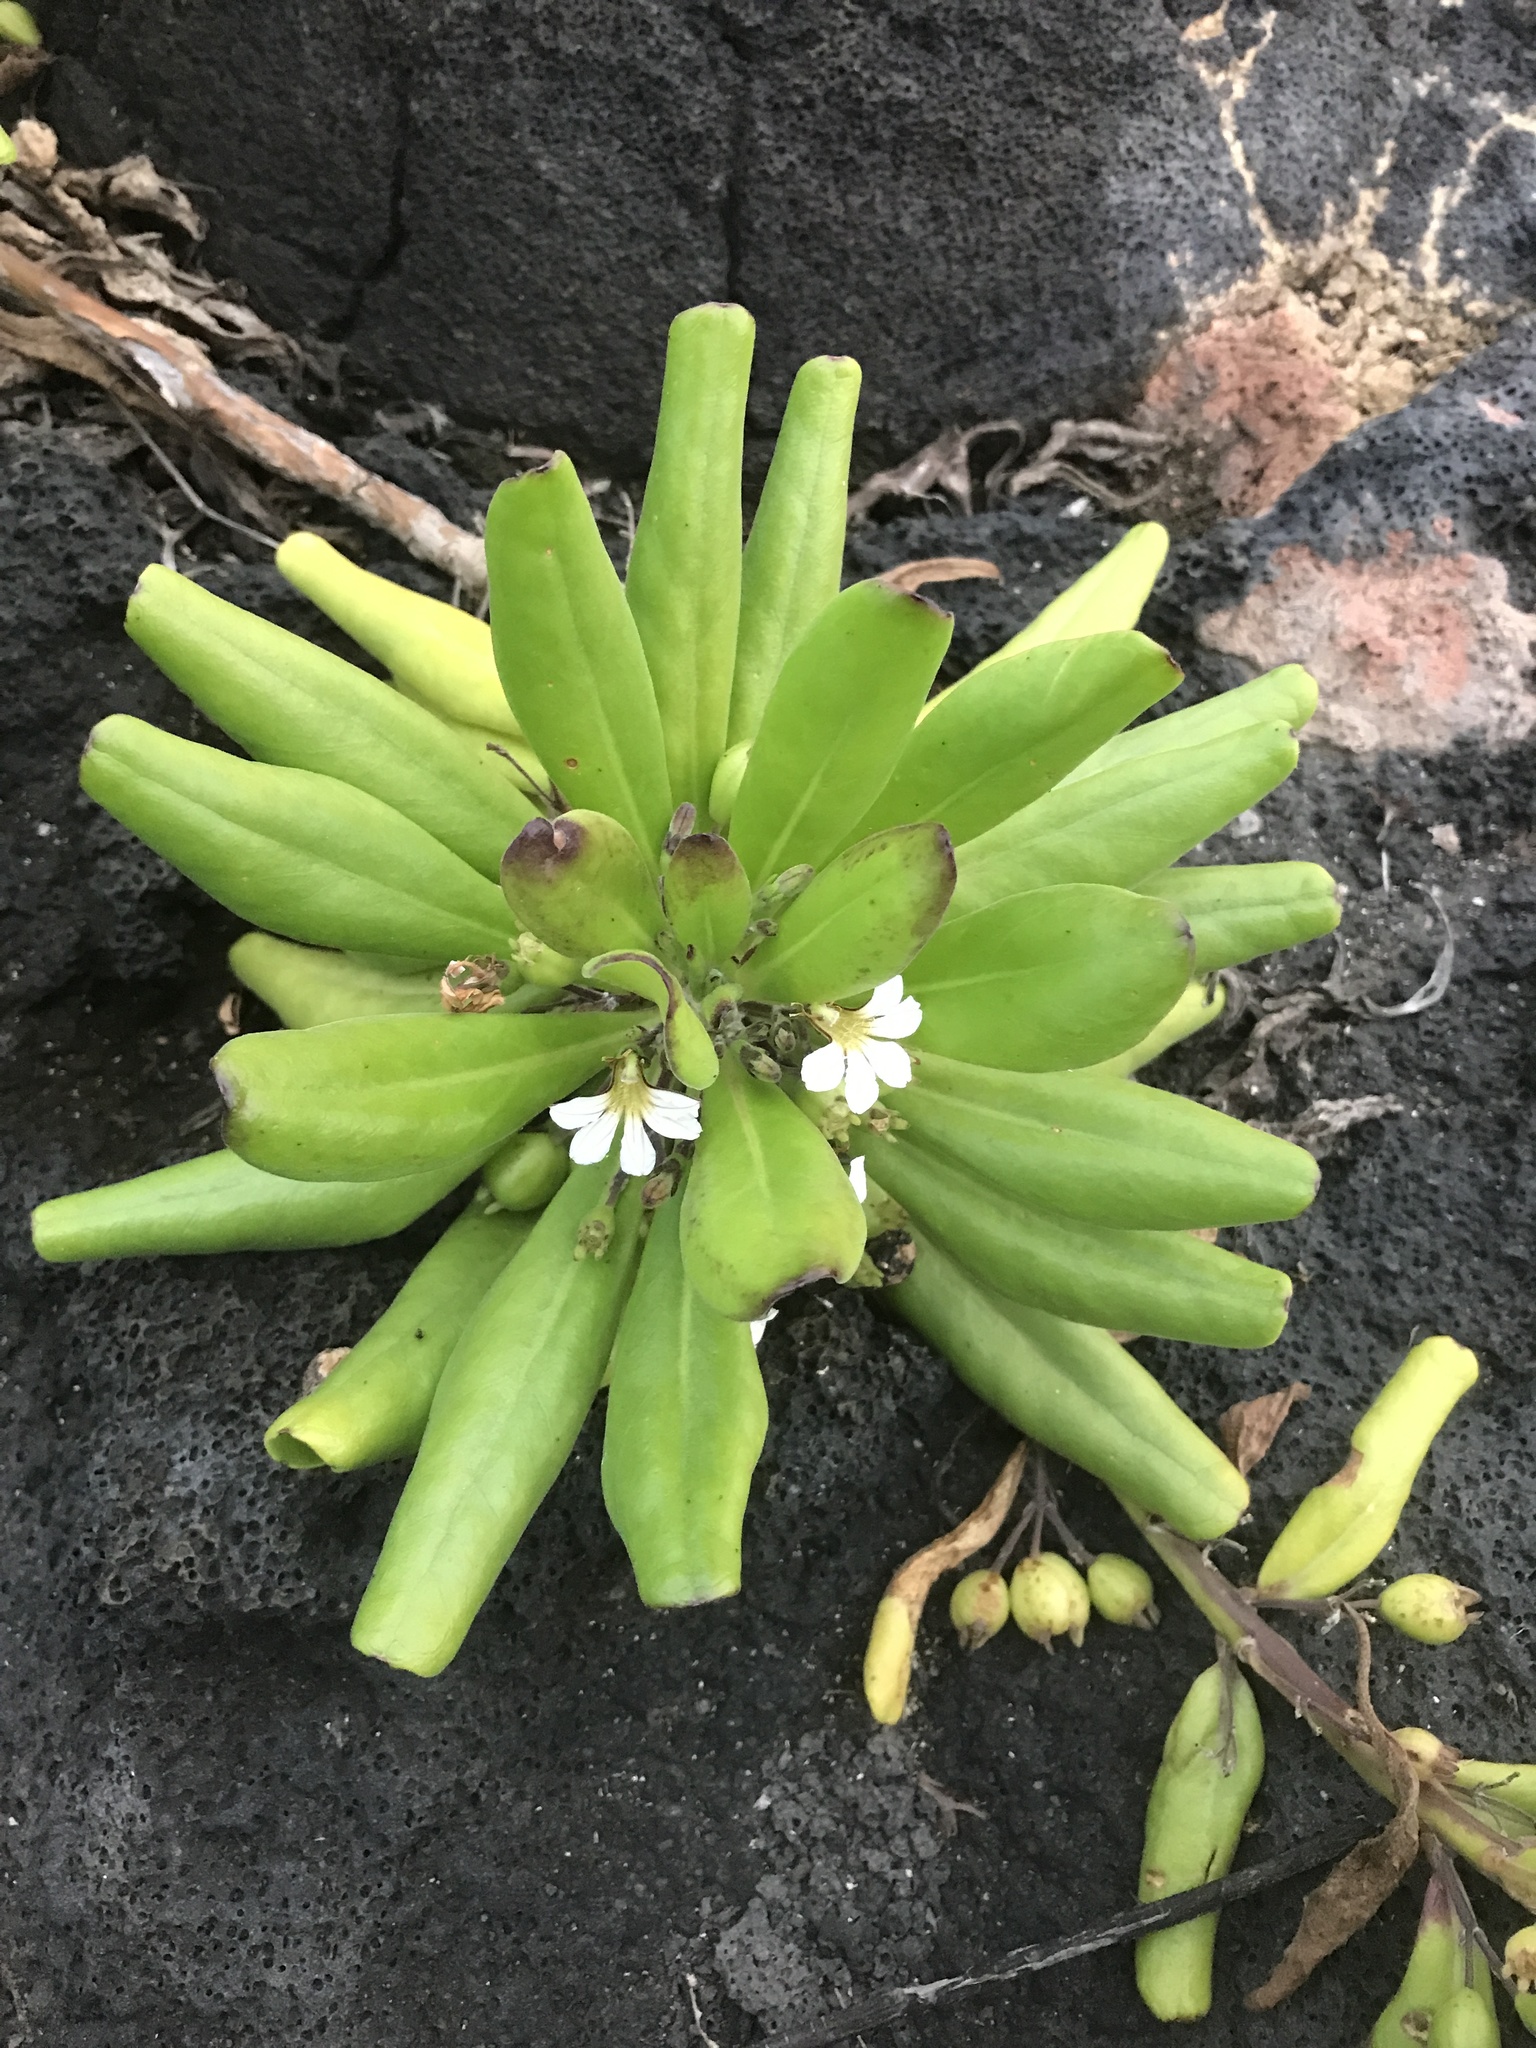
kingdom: Plantae
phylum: Tracheophyta
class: Magnoliopsida
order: Asterales
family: Goodeniaceae
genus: Scaevola
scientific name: Scaevola taccada
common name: Sea lettucetree
